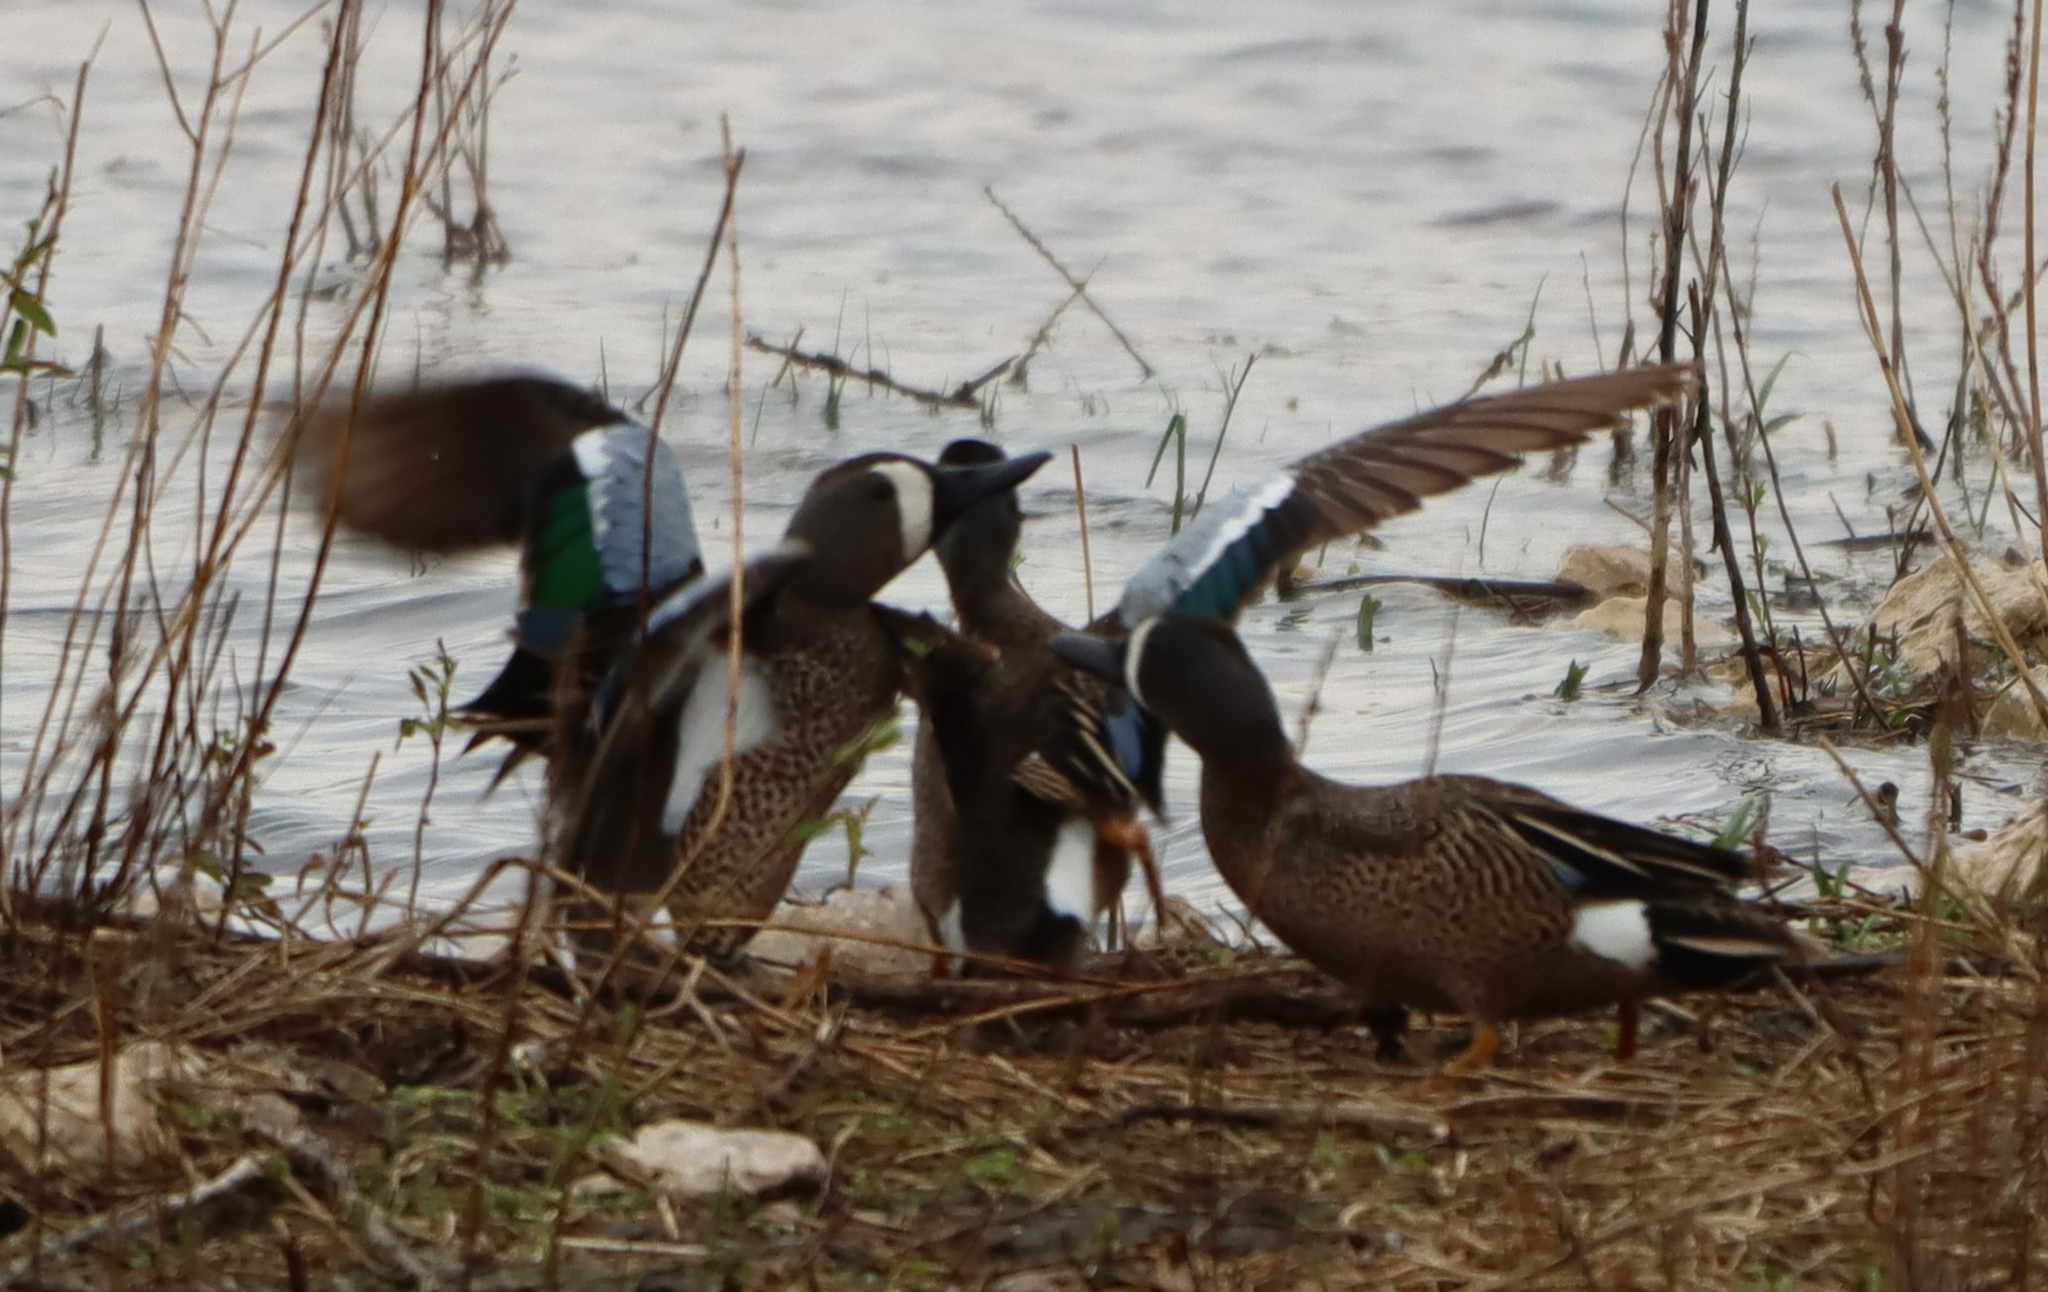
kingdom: Animalia
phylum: Chordata
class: Aves
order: Anseriformes
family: Anatidae
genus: Spatula
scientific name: Spatula discors
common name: Blue-winged teal
